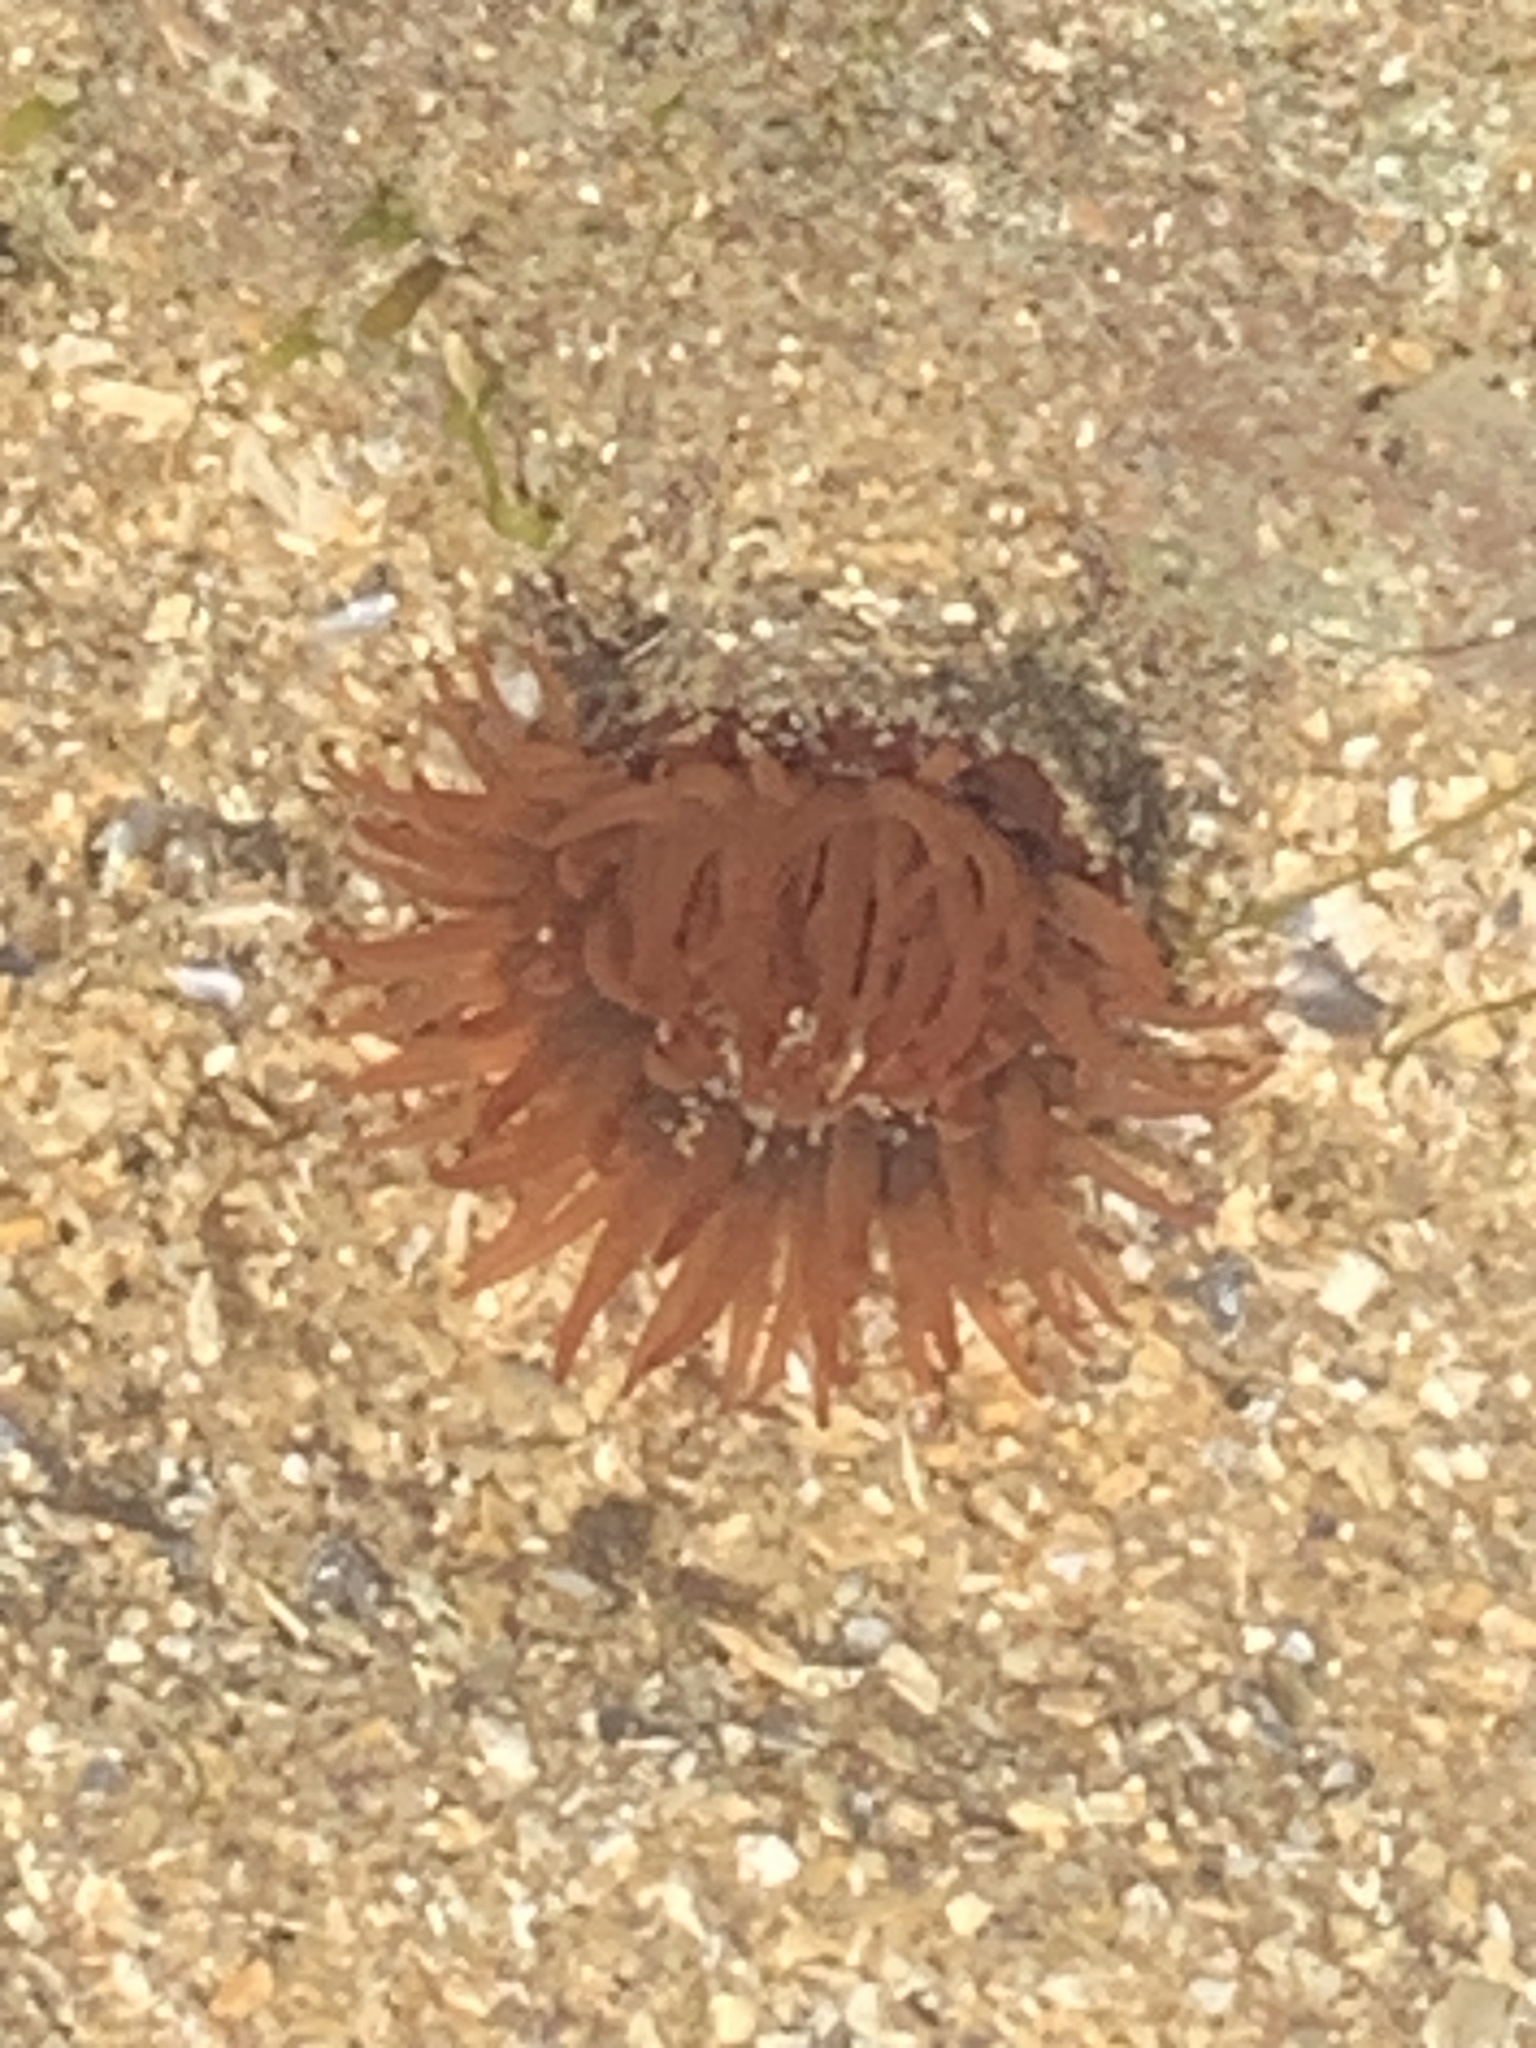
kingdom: Animalia
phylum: Cnidaria
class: Anthozoa
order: Actiniaria
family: Actiniidae
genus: Actinia
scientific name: Actinia equina
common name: Beadlet anemone
